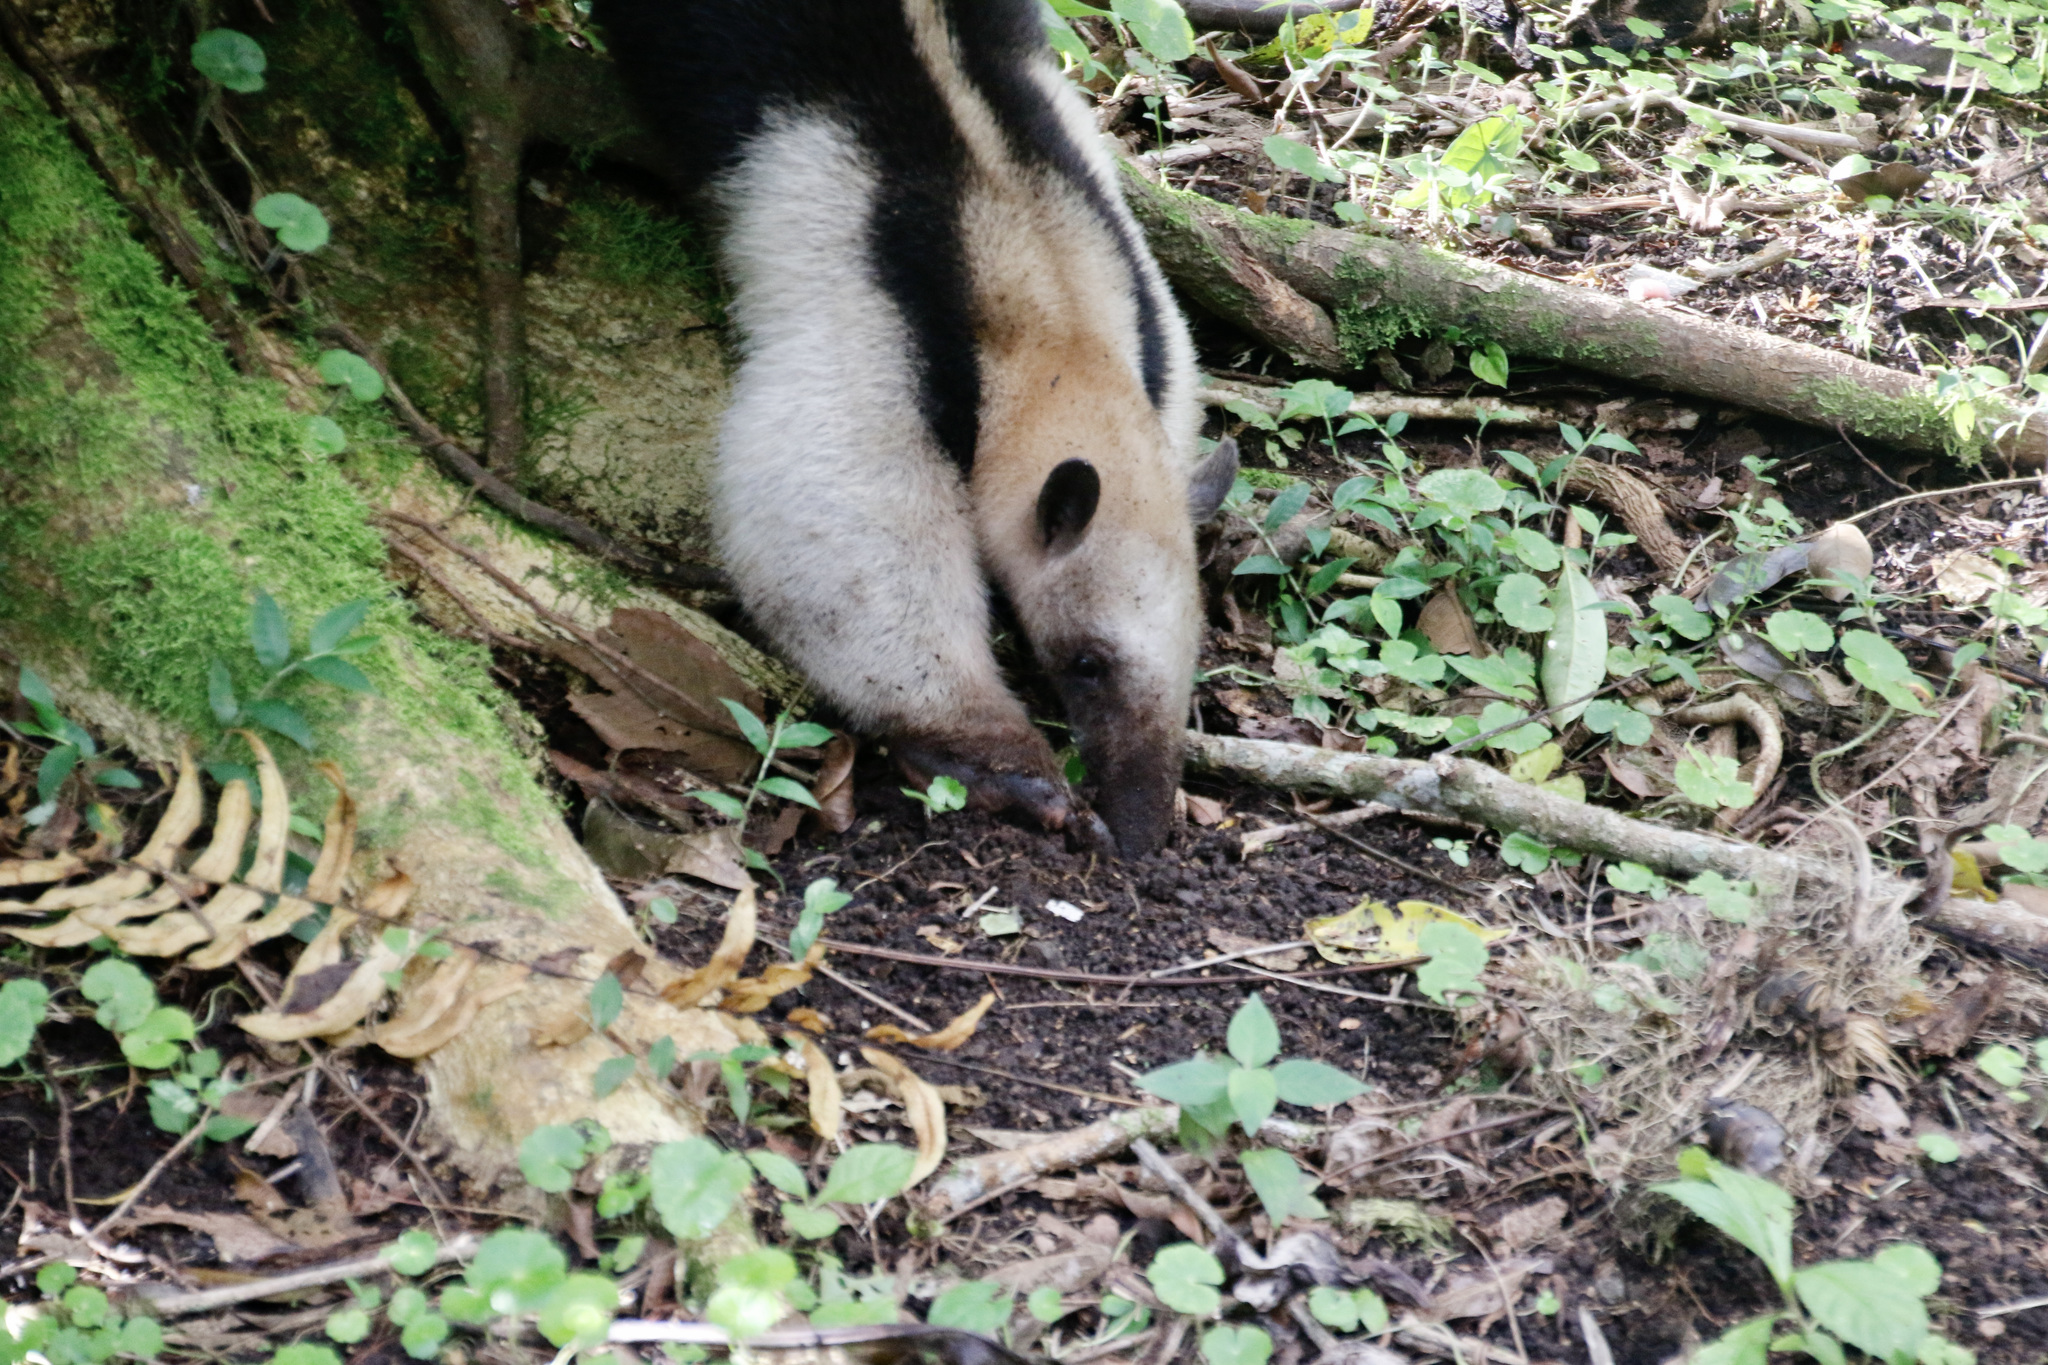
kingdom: Animalia
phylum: Chordata
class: Mammalia
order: Pilosa
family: Myrmecophagidae
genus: Tamandua
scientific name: Tamandua mexicana
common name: Northern tamandua
